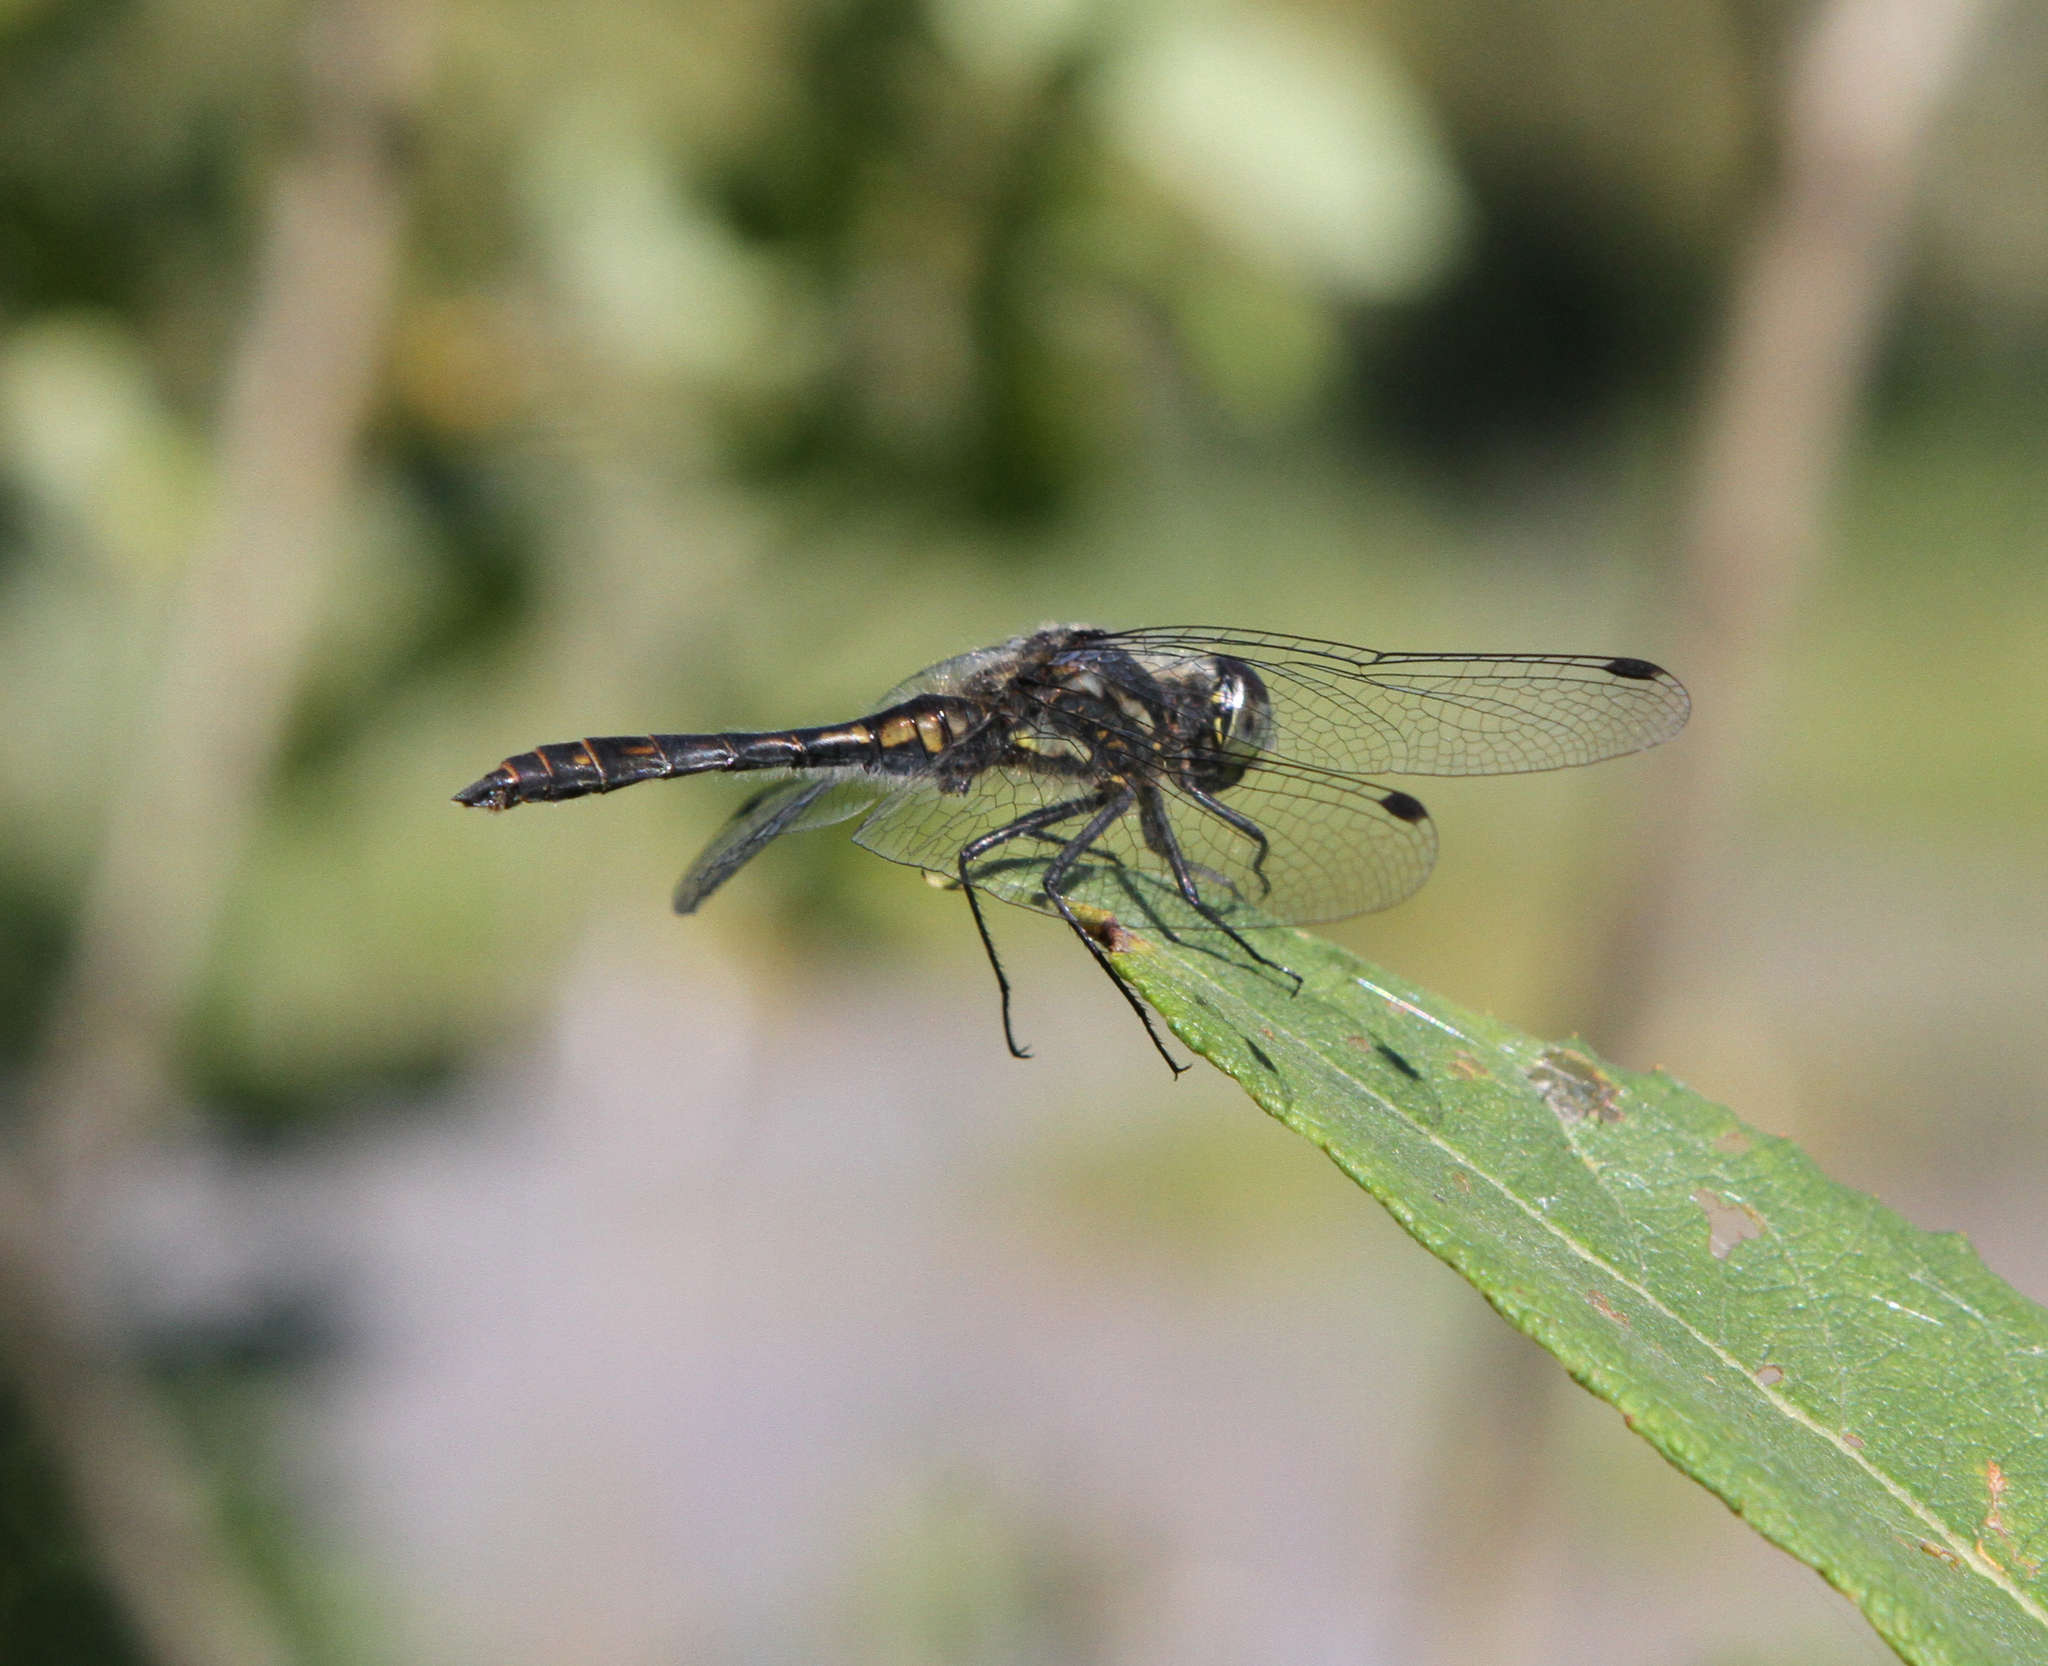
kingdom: Animalia
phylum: Arthropoda
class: Insecta
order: Odonata
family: Libellulidae
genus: Sympetrum
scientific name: Sympetrum danae
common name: Black darter
